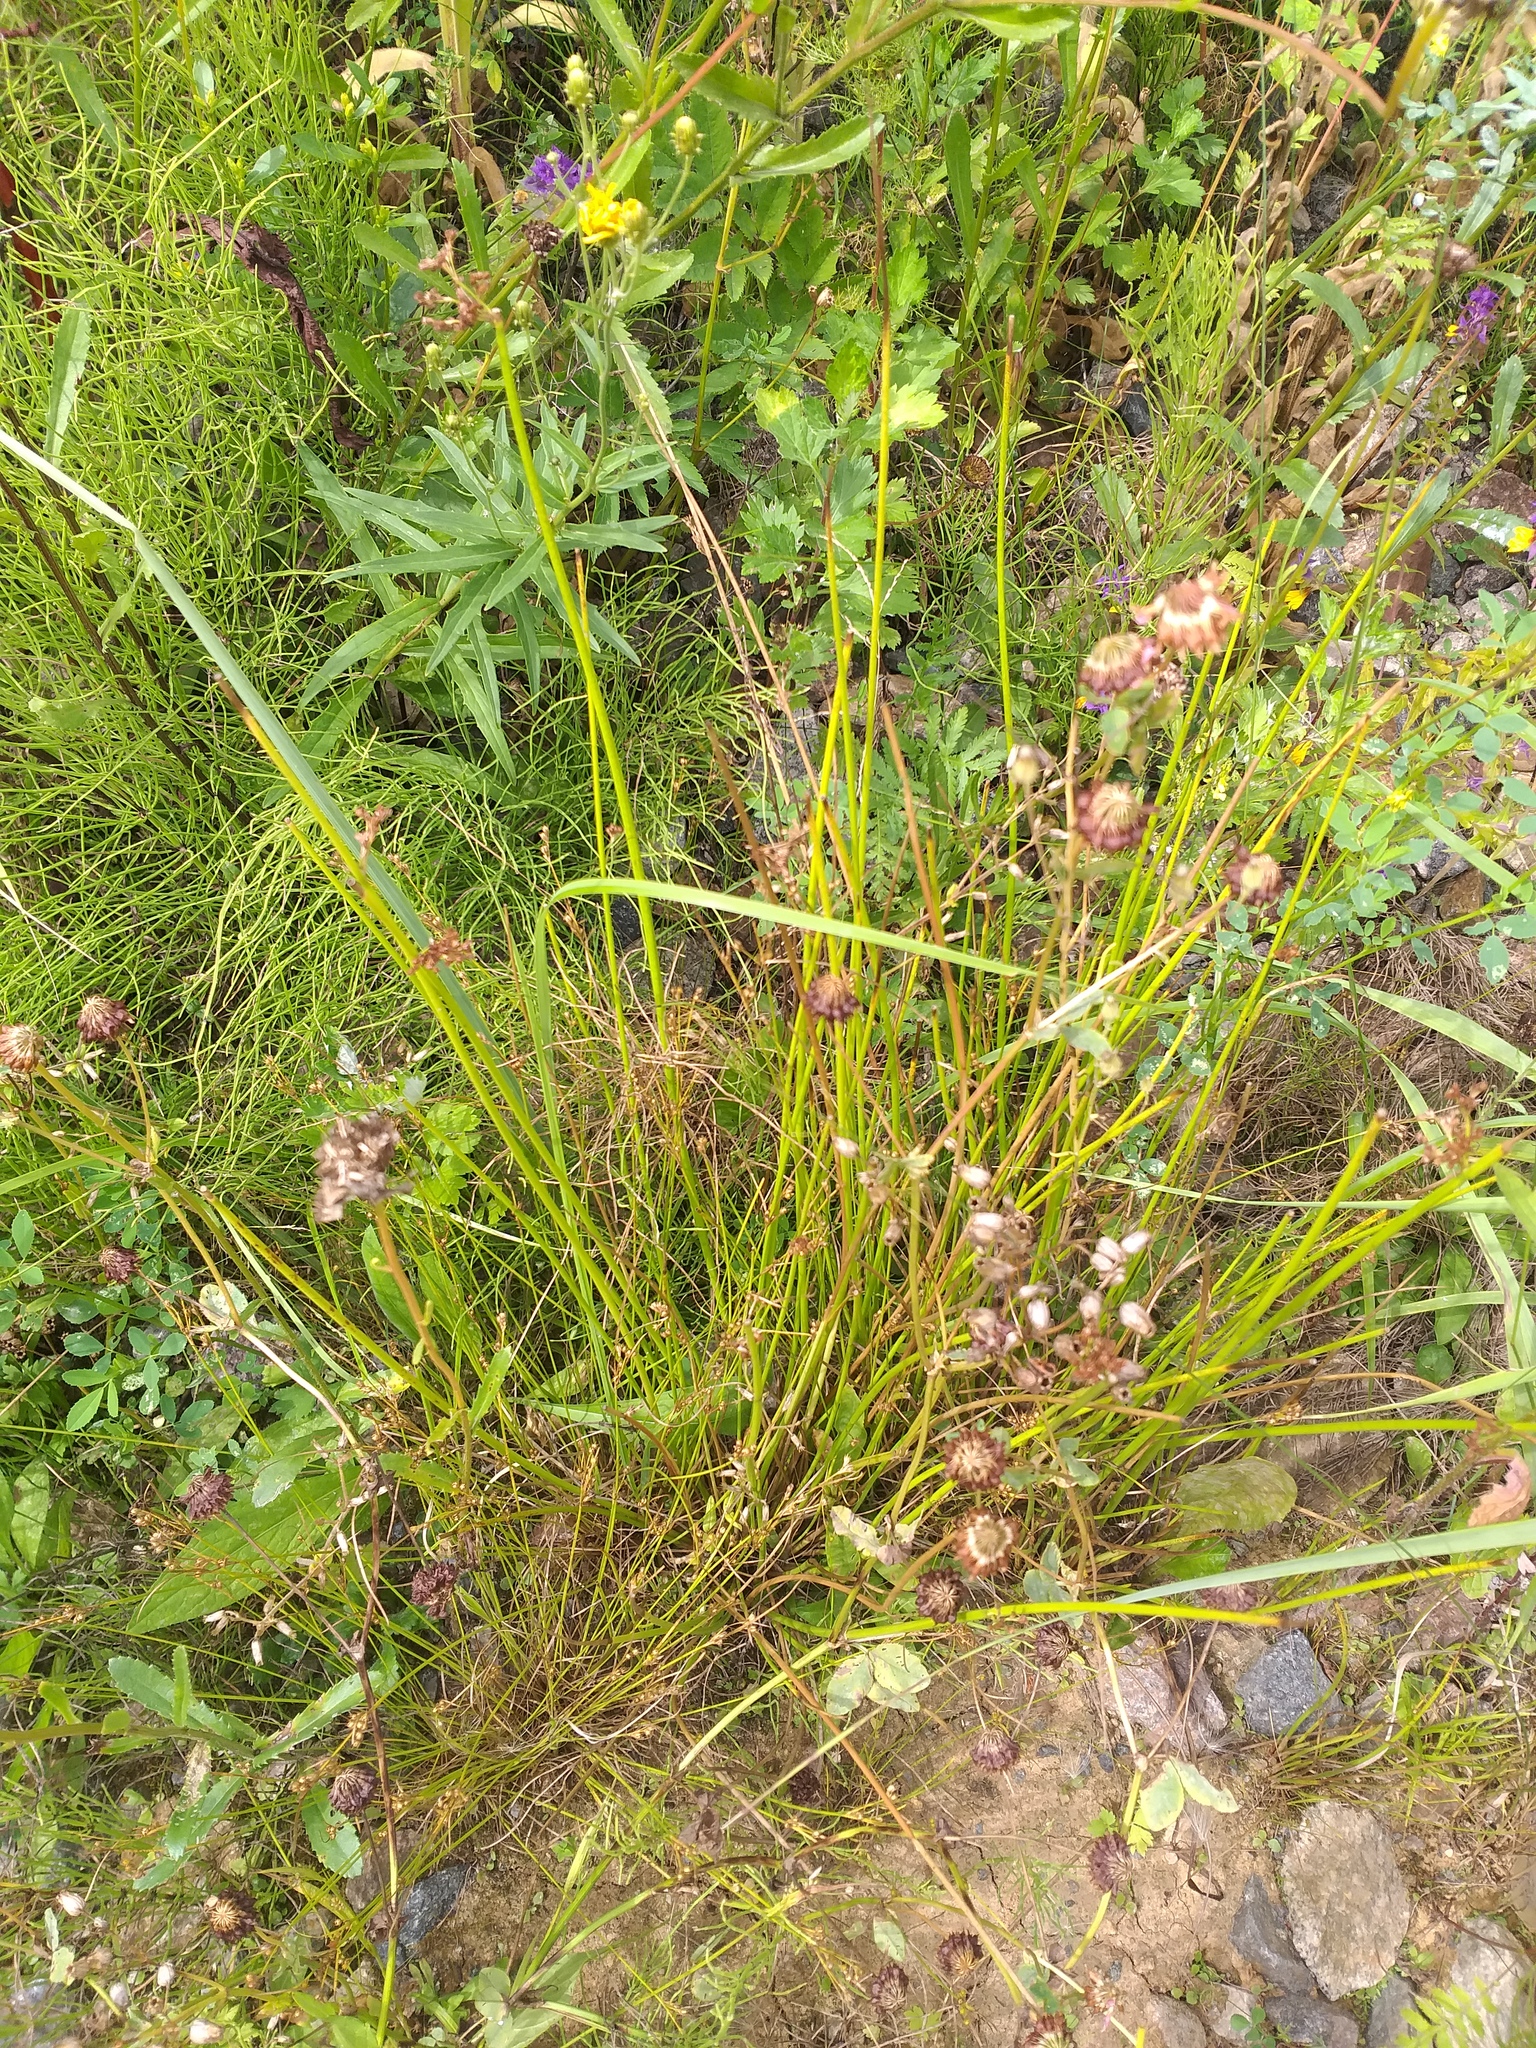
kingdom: Plantae
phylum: Tracheophyta
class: Magnoliopsida
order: Fabales
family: Fabaceae
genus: Trifolium
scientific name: Trifolium hybridum
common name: Alsike clover
